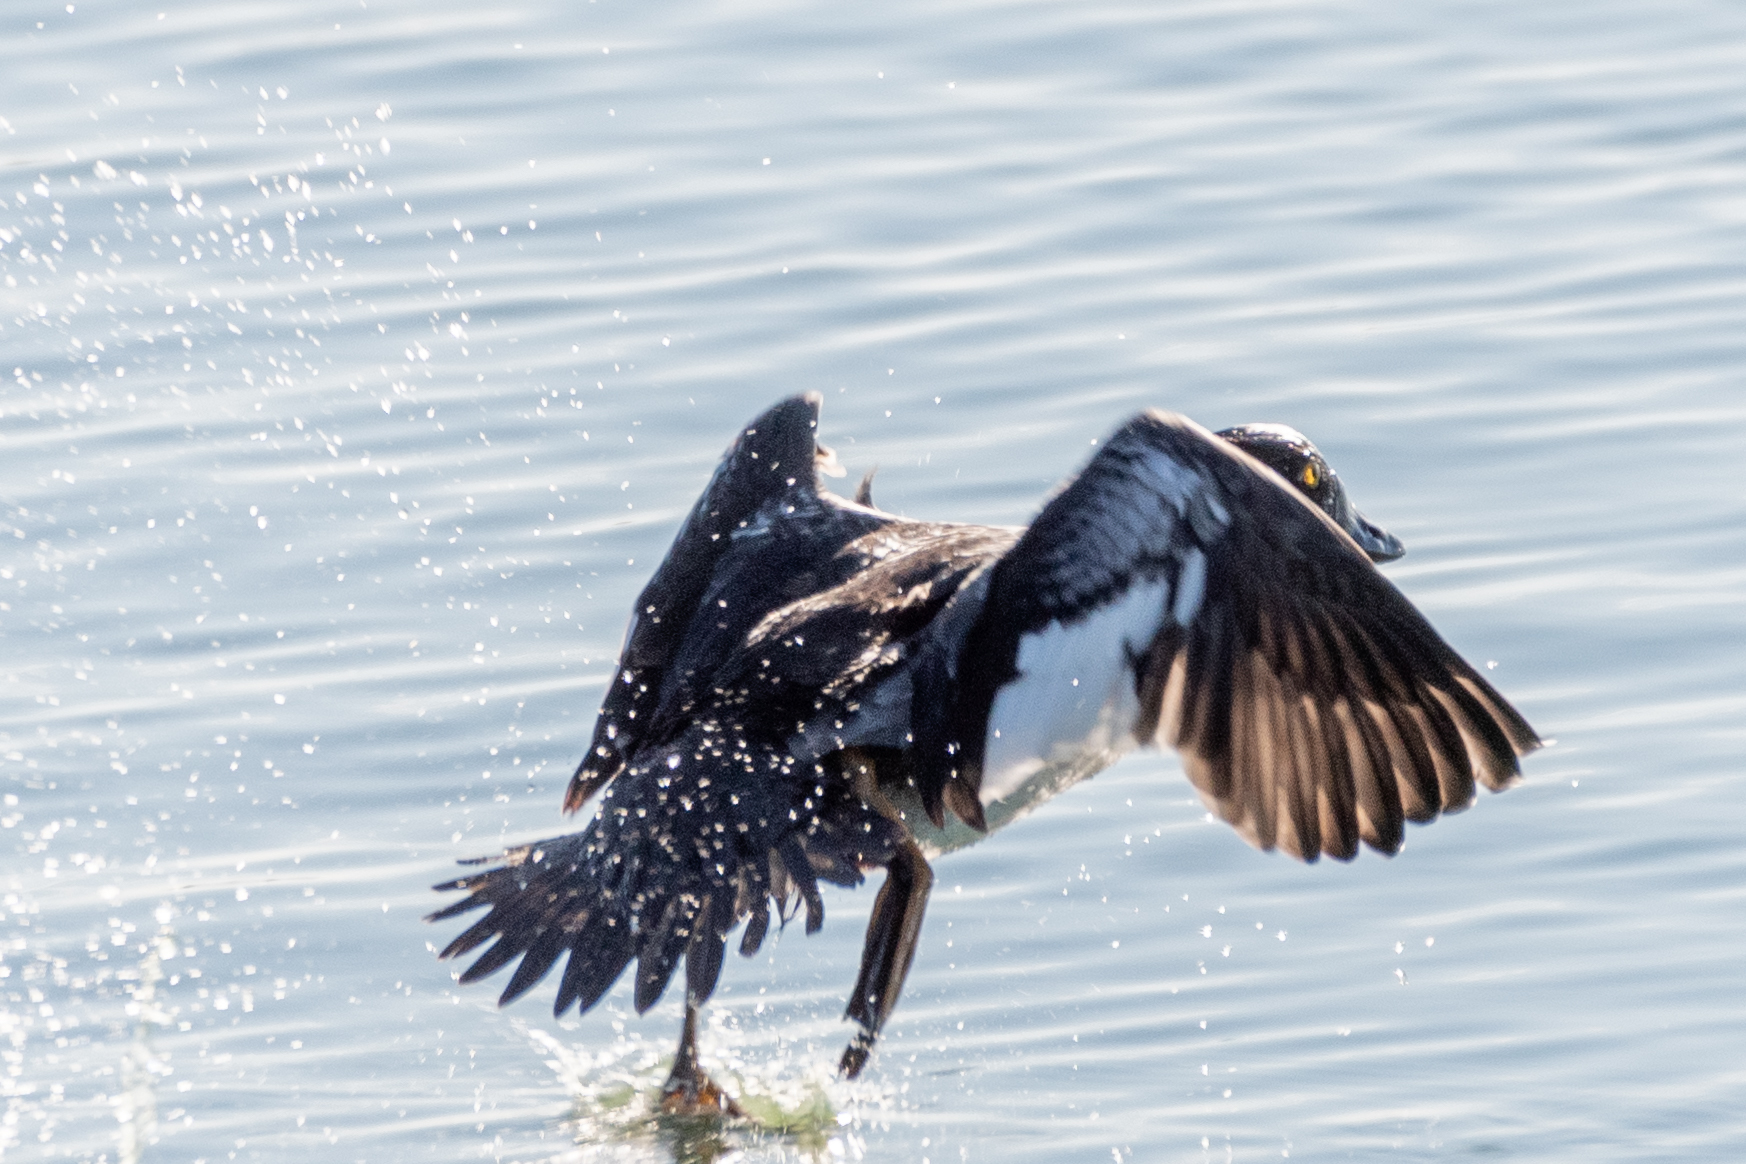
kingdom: Animalia
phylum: Chordata
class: Aves
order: Anseriformes
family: Anatidae
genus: Bucephala
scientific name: Bucephala clangula
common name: Common goldeneye
